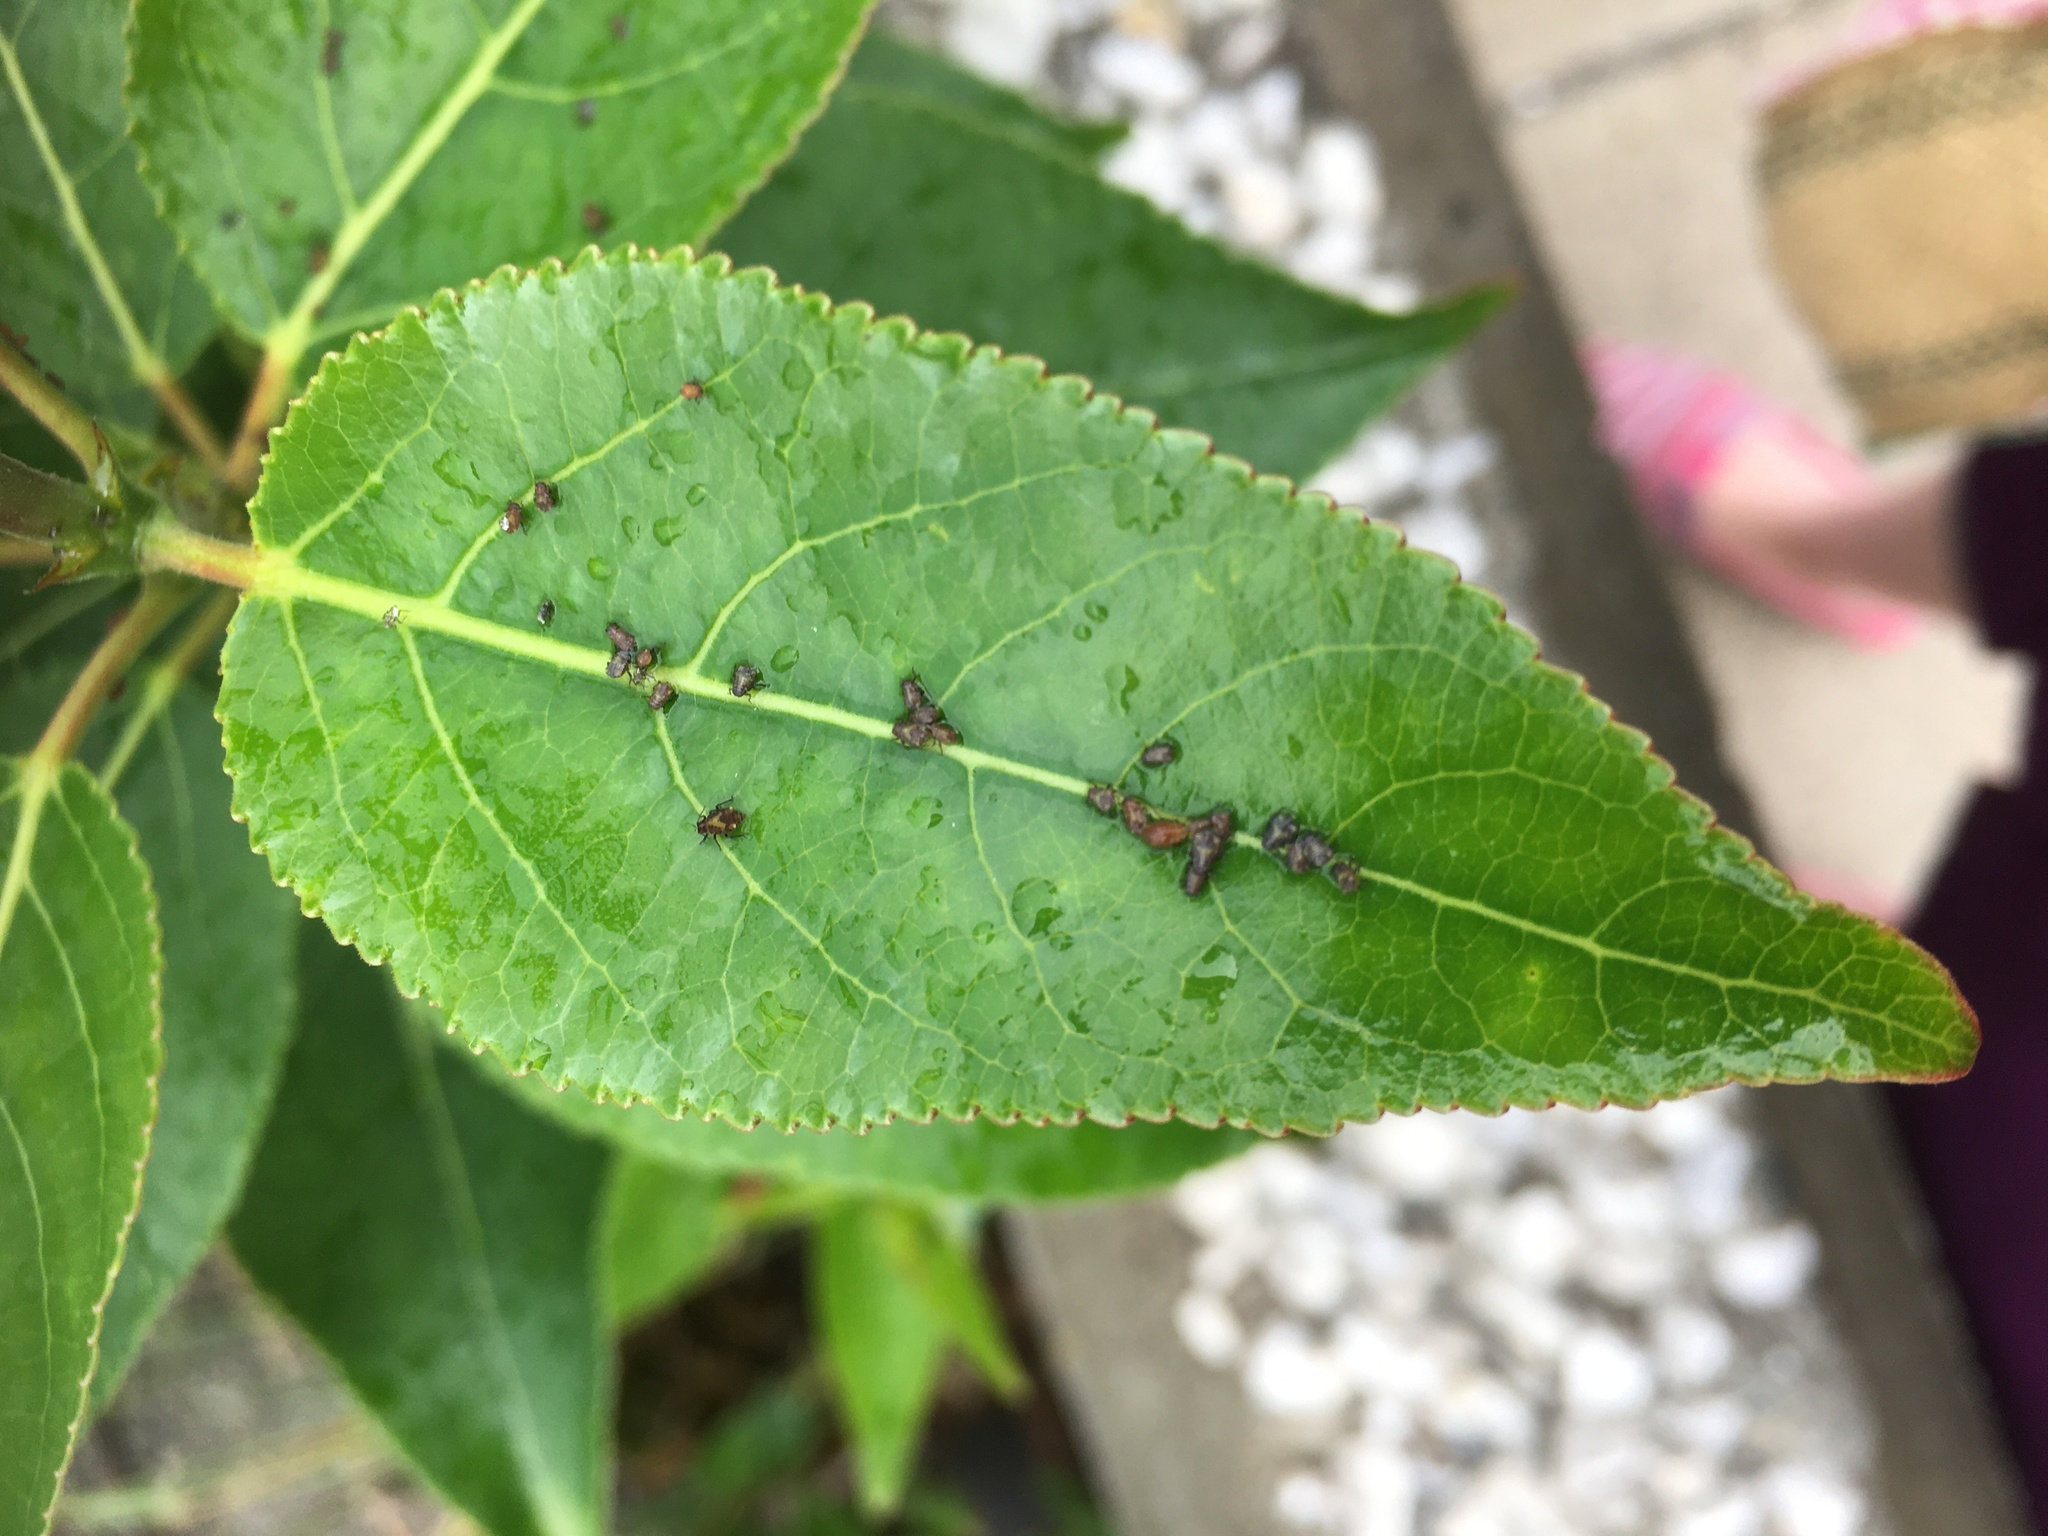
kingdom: Animalia
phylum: Arthropoda
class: Insecta
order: Lepidoptera
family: Noctuidae
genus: Acronicta
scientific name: Acronicta lepusculina
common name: Cottonwood dagger
